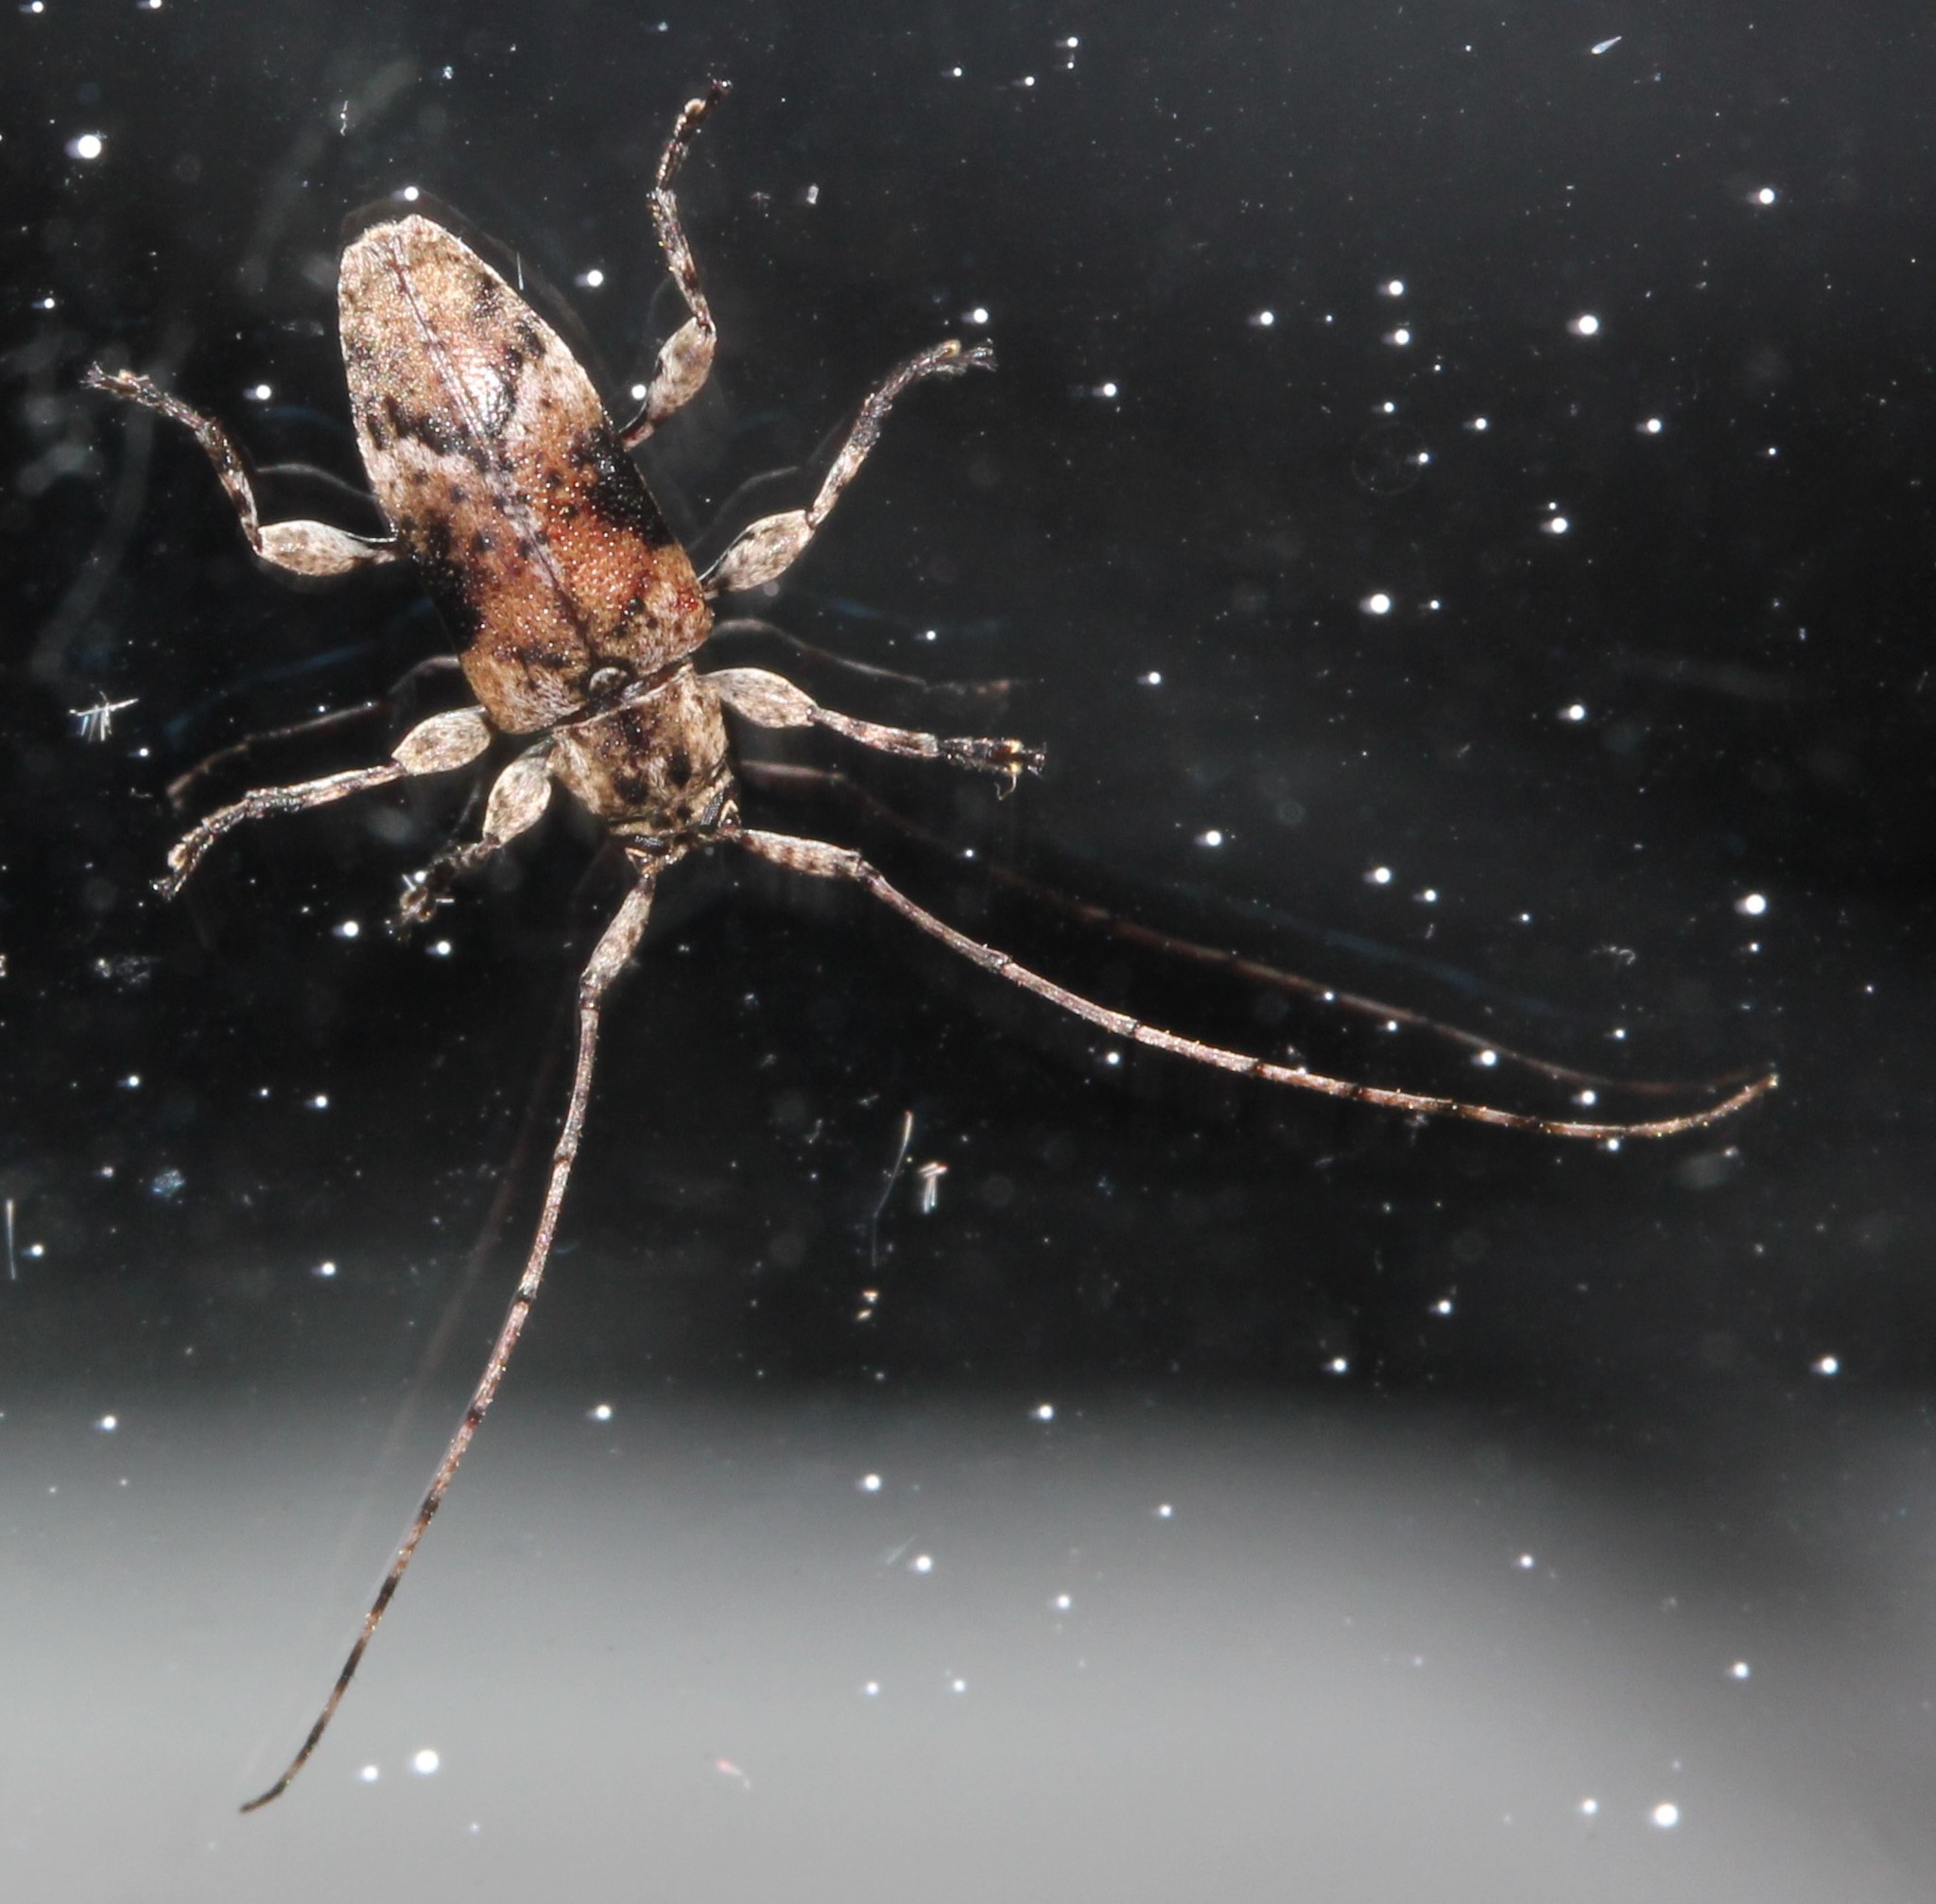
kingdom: Animalia
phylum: Arthropoda
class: Insecta
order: Coleoptera
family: Cerambycidae
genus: Sternidius
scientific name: Sternidius alpha
